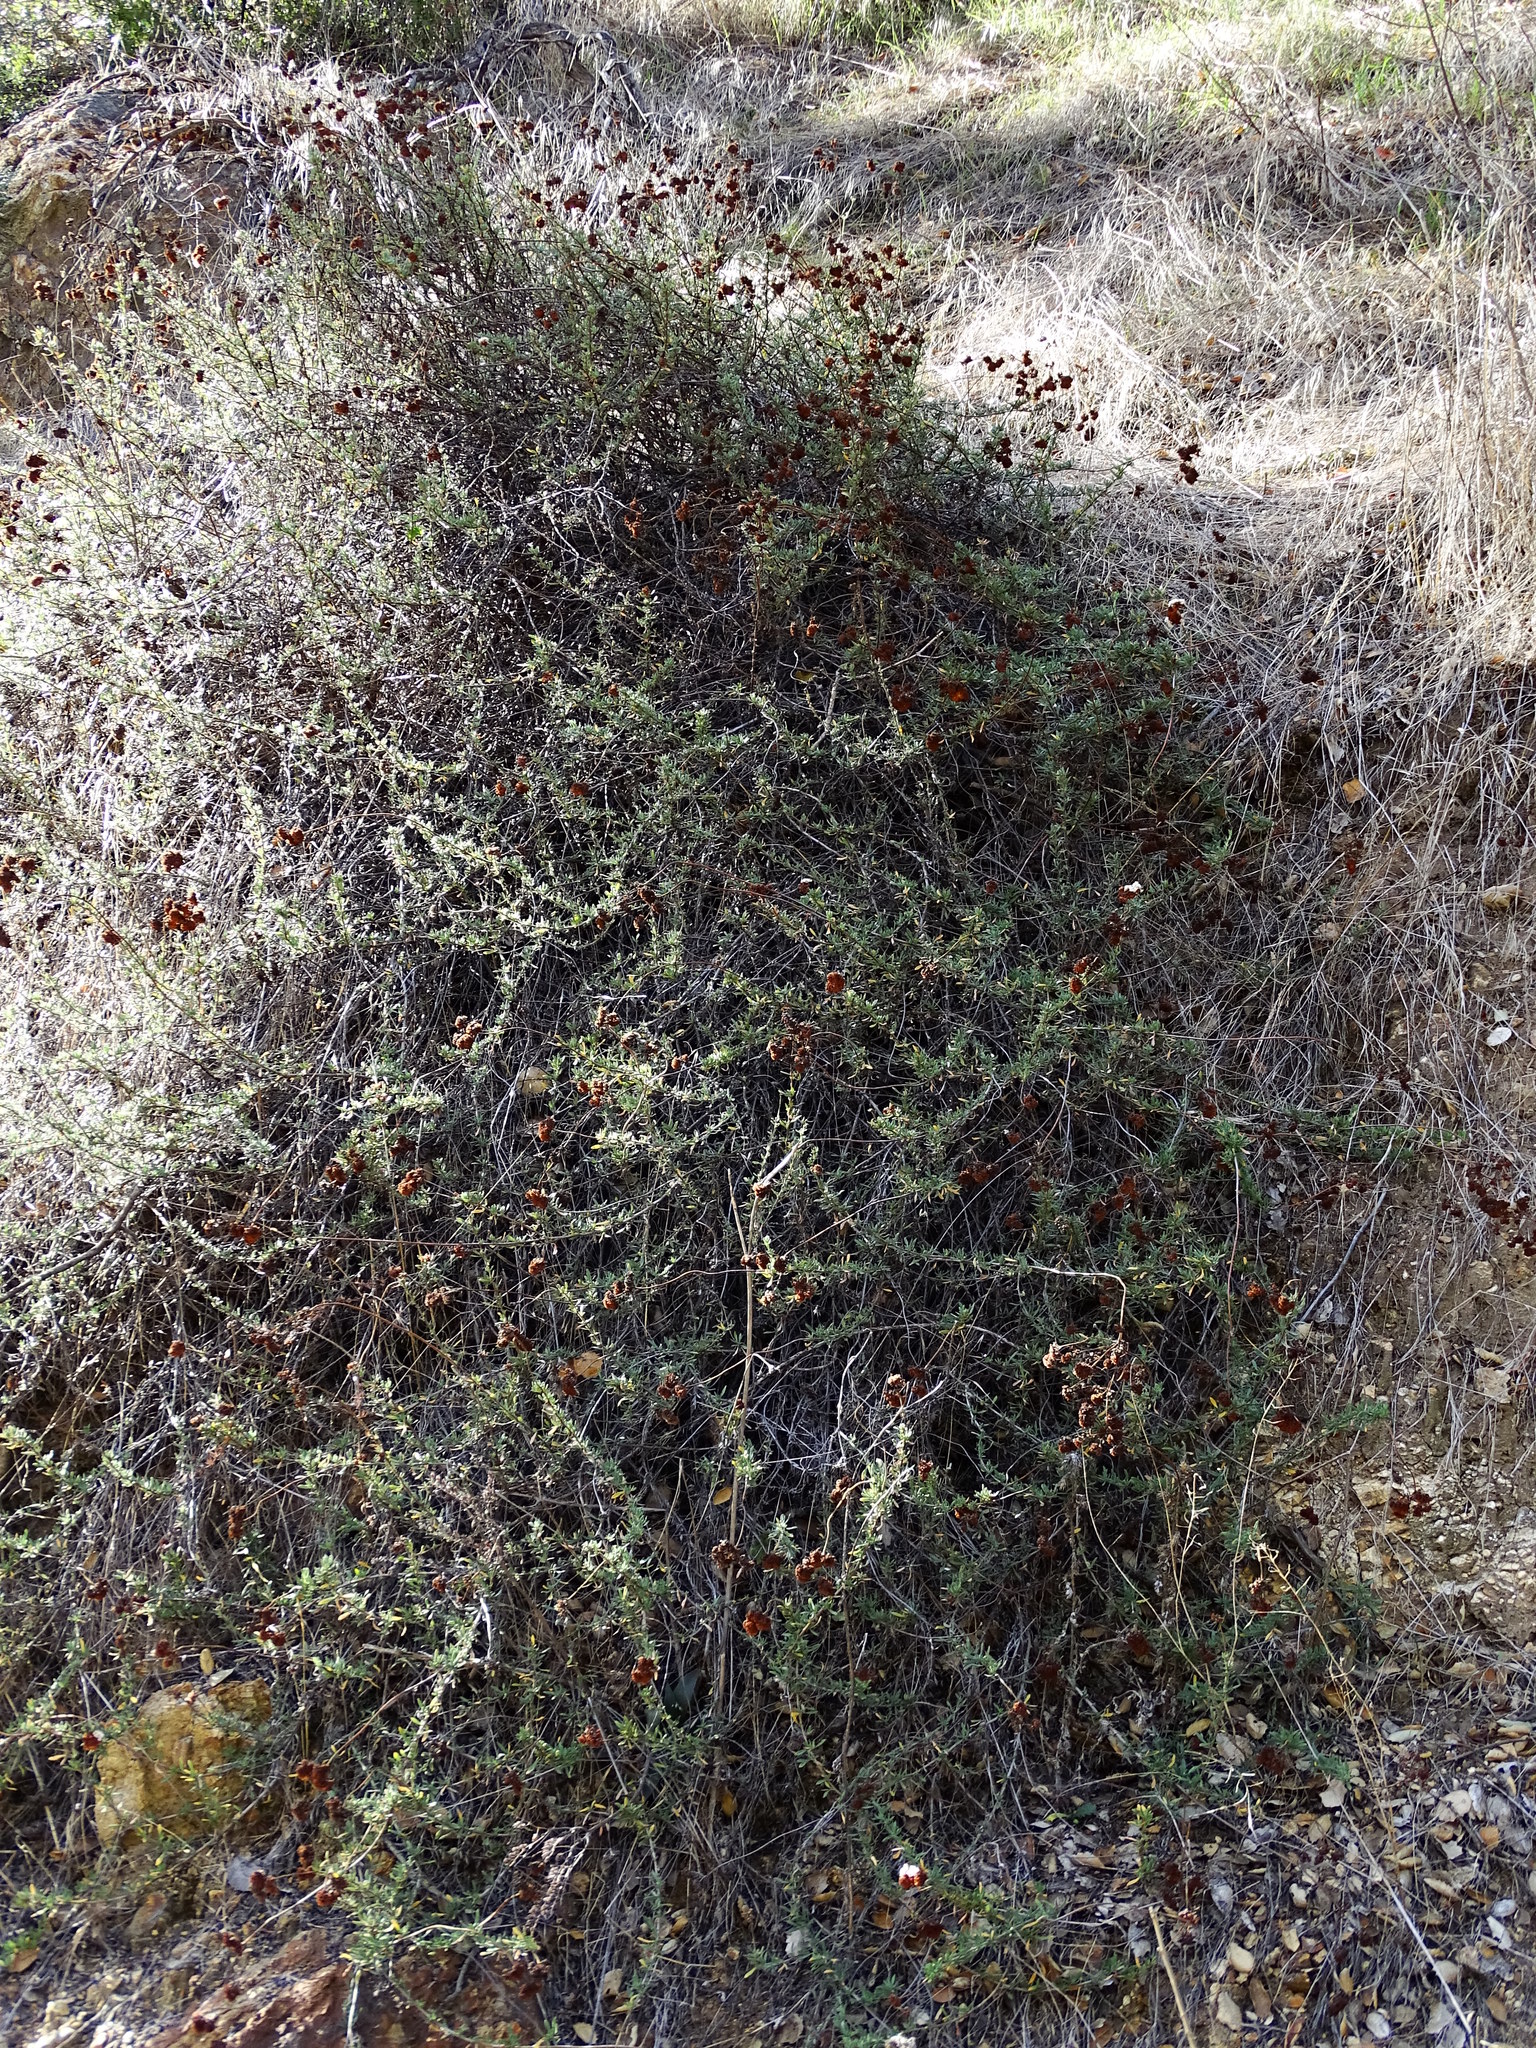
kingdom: Plantae
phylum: Tracheophyta
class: Magnoliopsida
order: Caryophyllales
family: Polygonaceae
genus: Eriogonum
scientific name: Eriogonum fasciculatum
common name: California wild buckwheat
